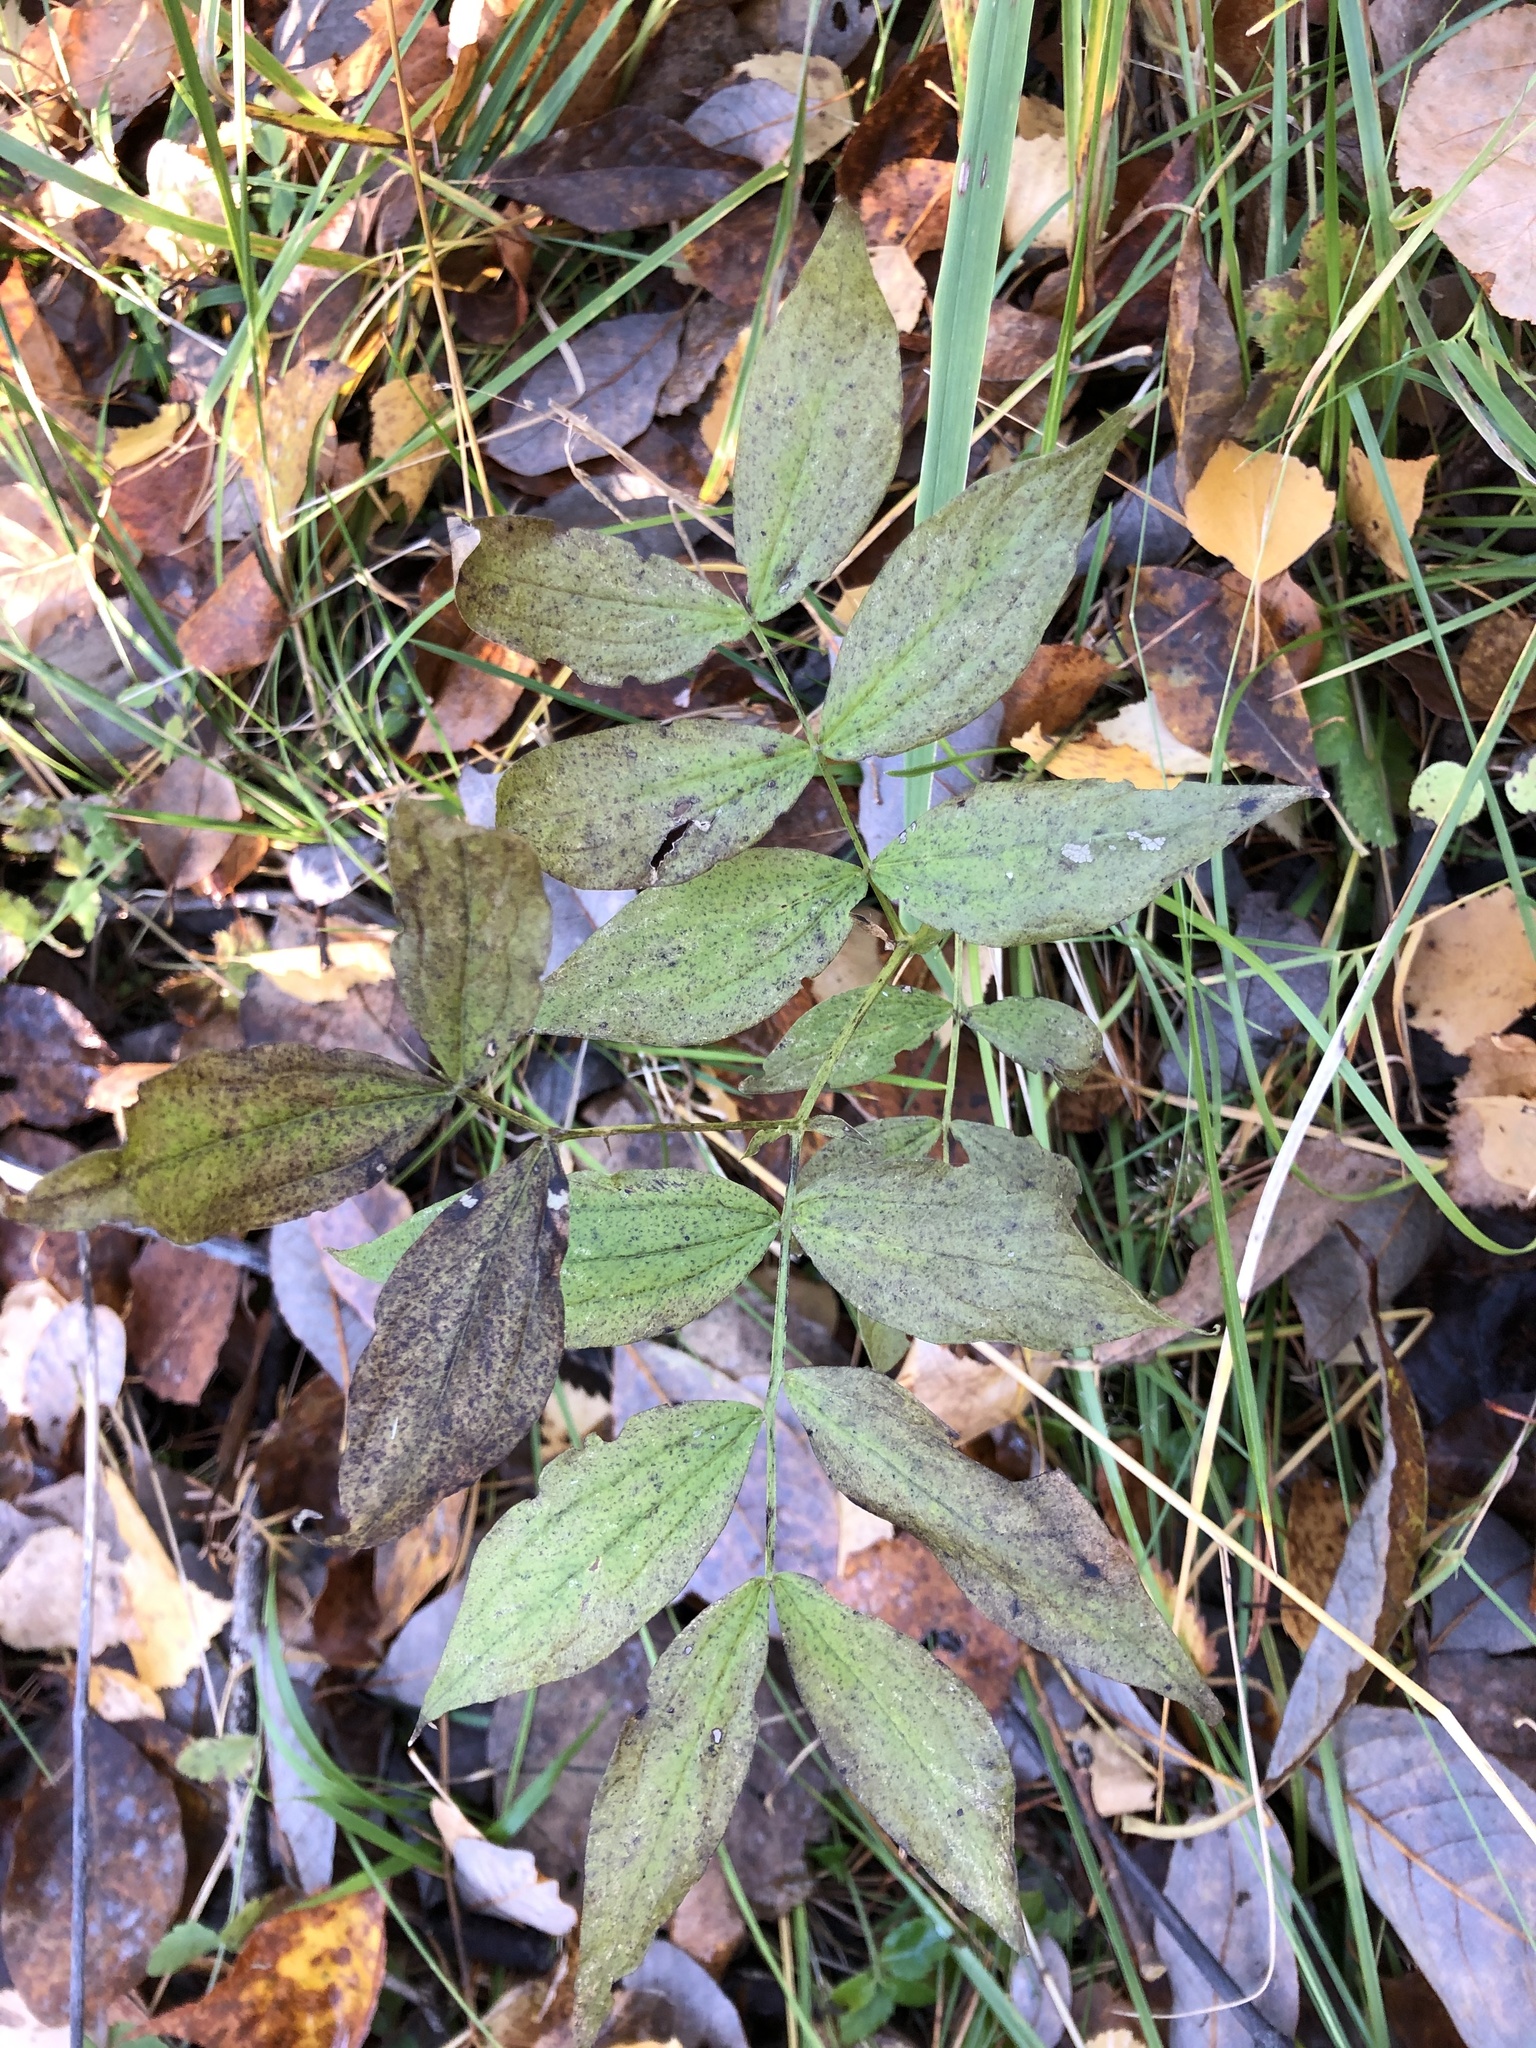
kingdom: Plantae
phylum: Tracheophyta
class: Magnoliopsida
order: Fabales
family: Fabaceae
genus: Lathyrus
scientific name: Lathyrus vernus
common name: Spring pea
